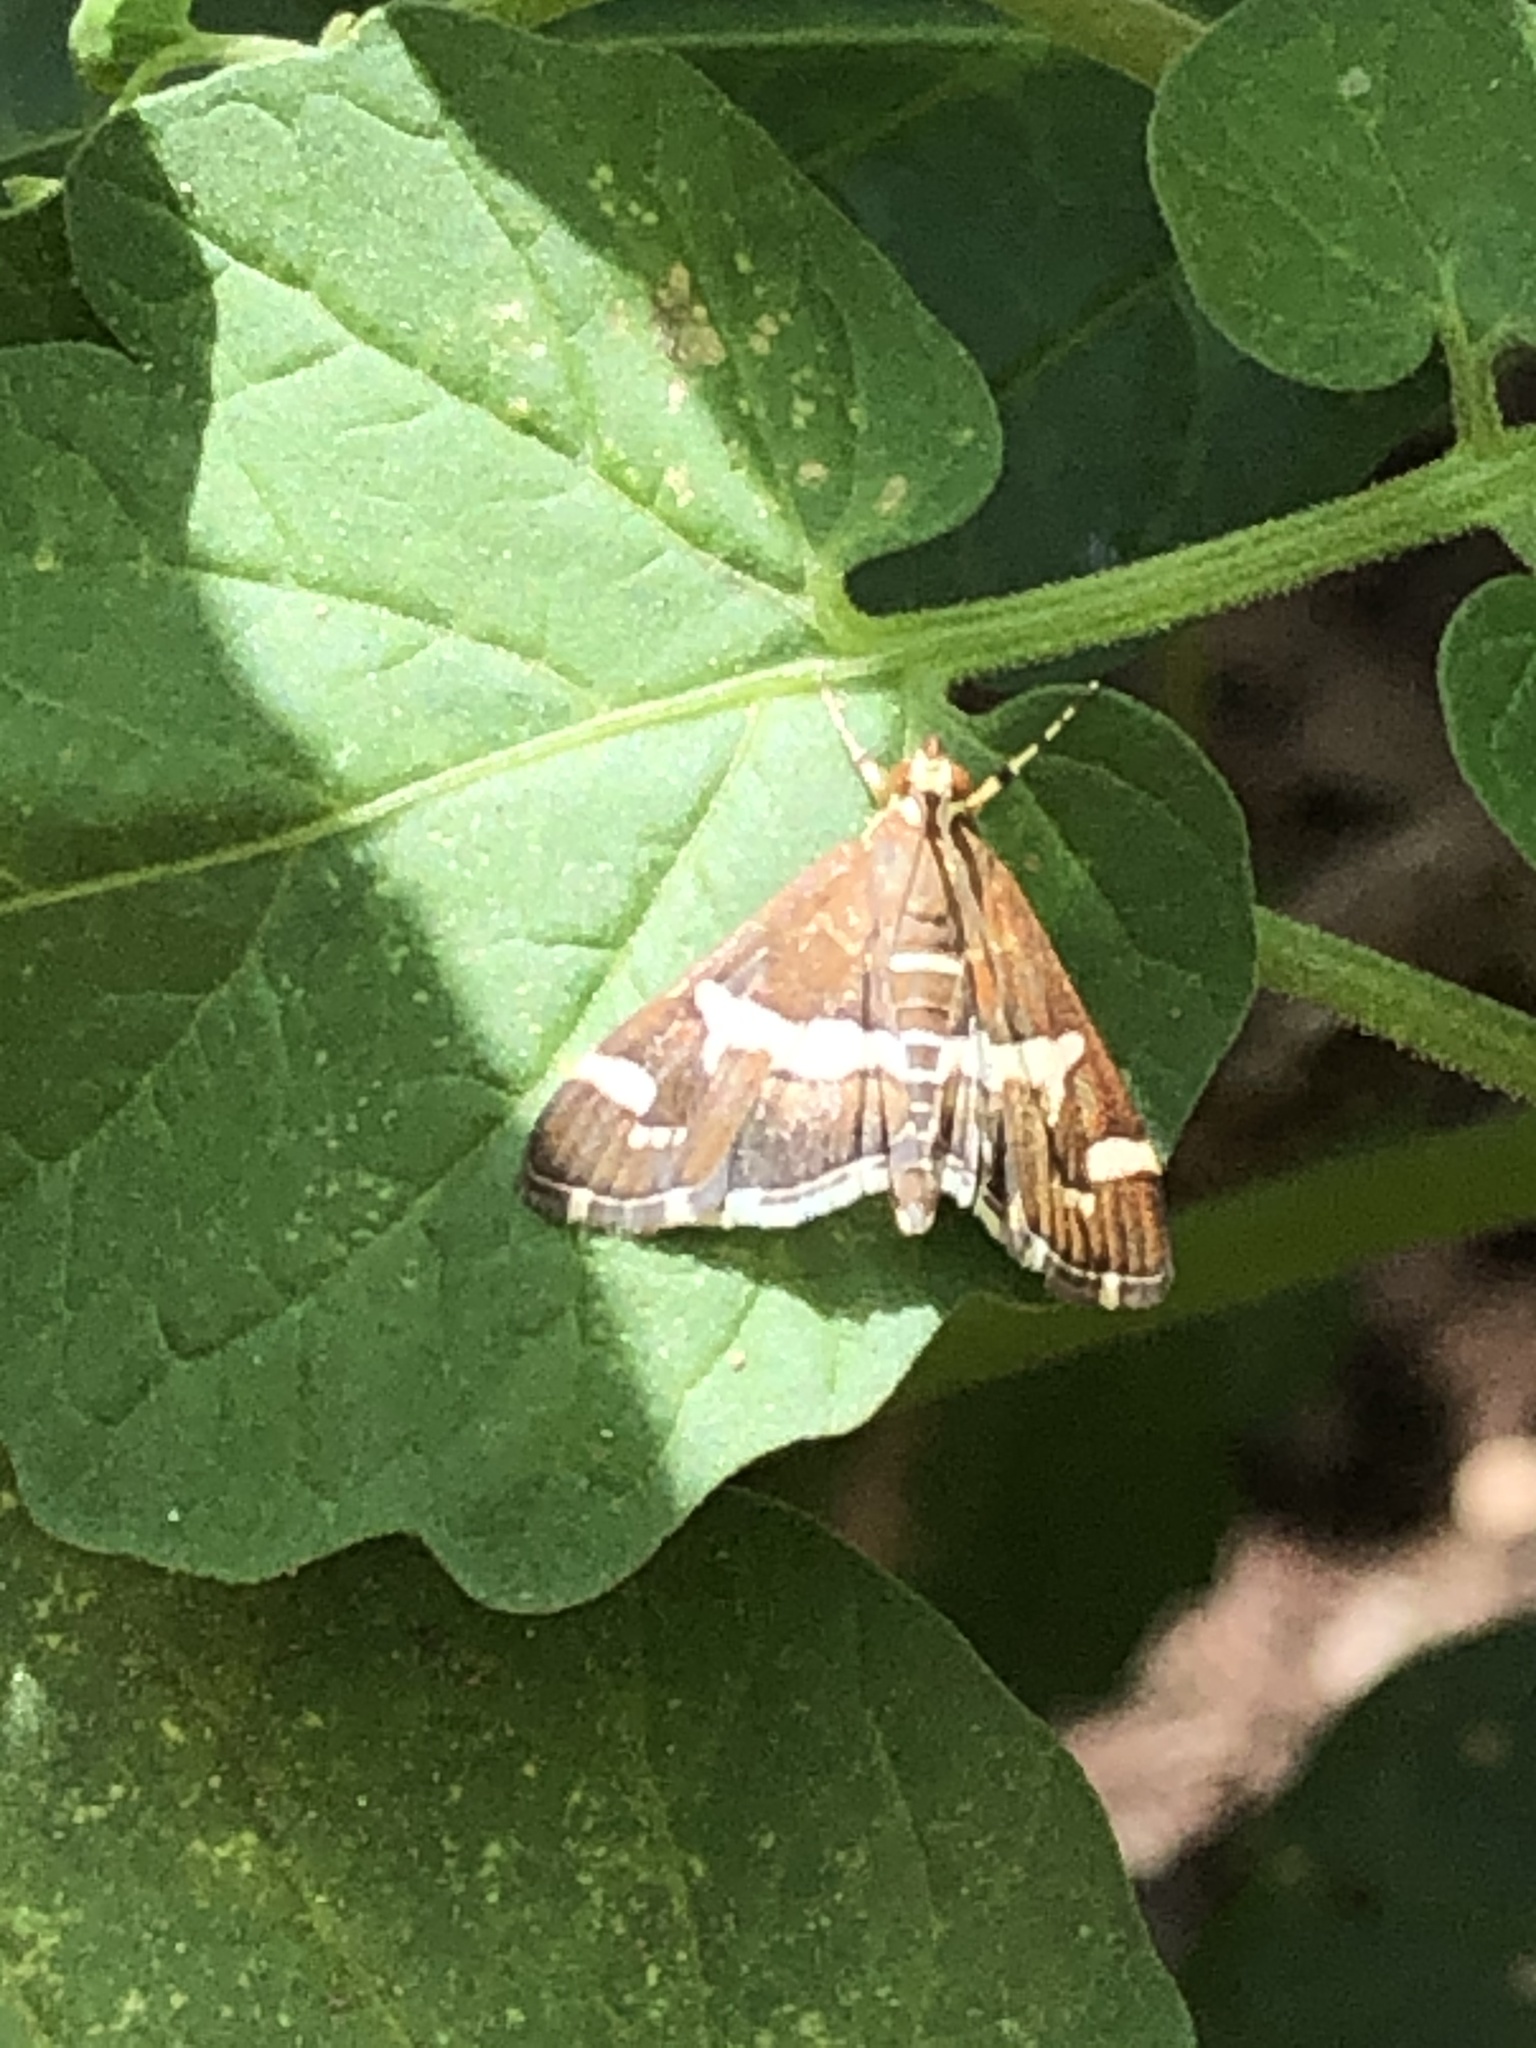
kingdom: Animalia
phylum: Arthropoda
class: Insecta
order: Lepidoptera
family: Crambidae
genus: Spoladea
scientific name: Spoladea recurvalis
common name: Beet webworm moth
